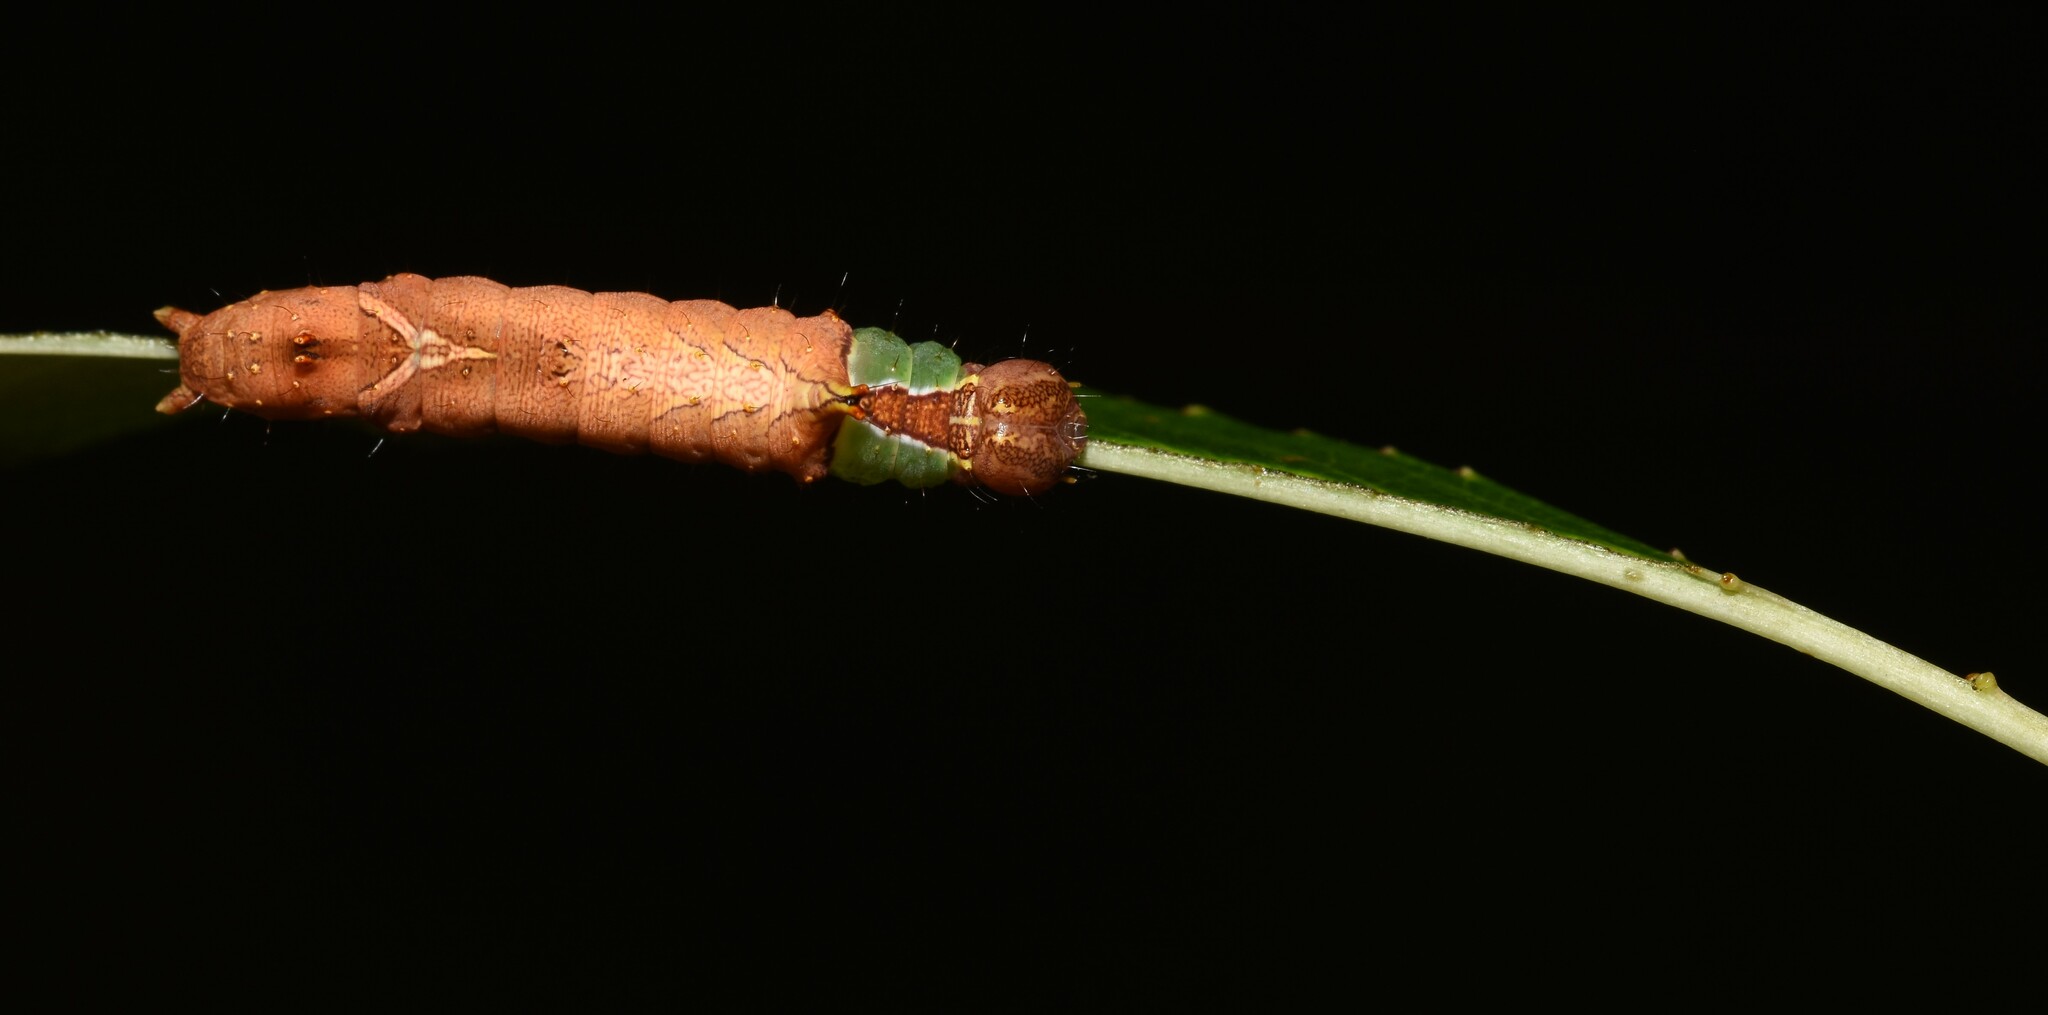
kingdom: Animalia
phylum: Arthropoda
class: Insecta
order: Lepidoptera
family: Notodontidae
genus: Schizura
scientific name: Schizura
